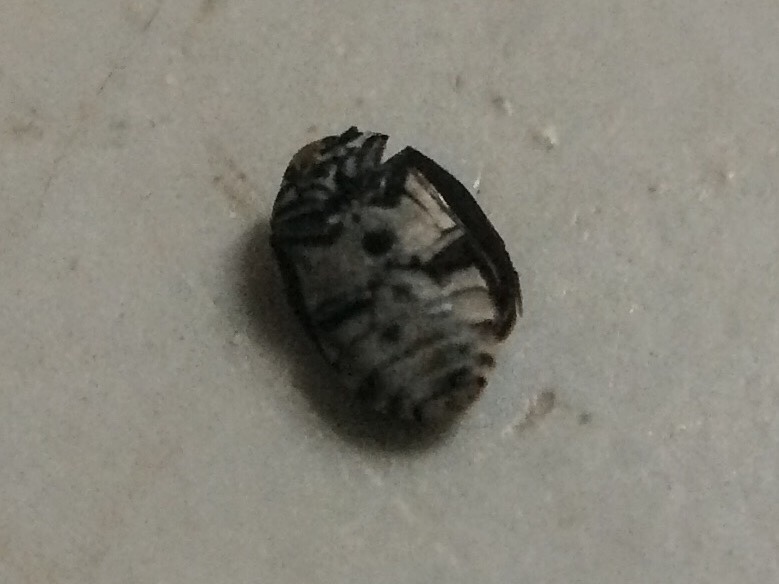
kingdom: Animalia
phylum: Arthropoda
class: Insecta
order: Coleoptera
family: Dermestidae
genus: Anthrenus
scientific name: Anthrenus verbasci
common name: Varied carpet beetle
